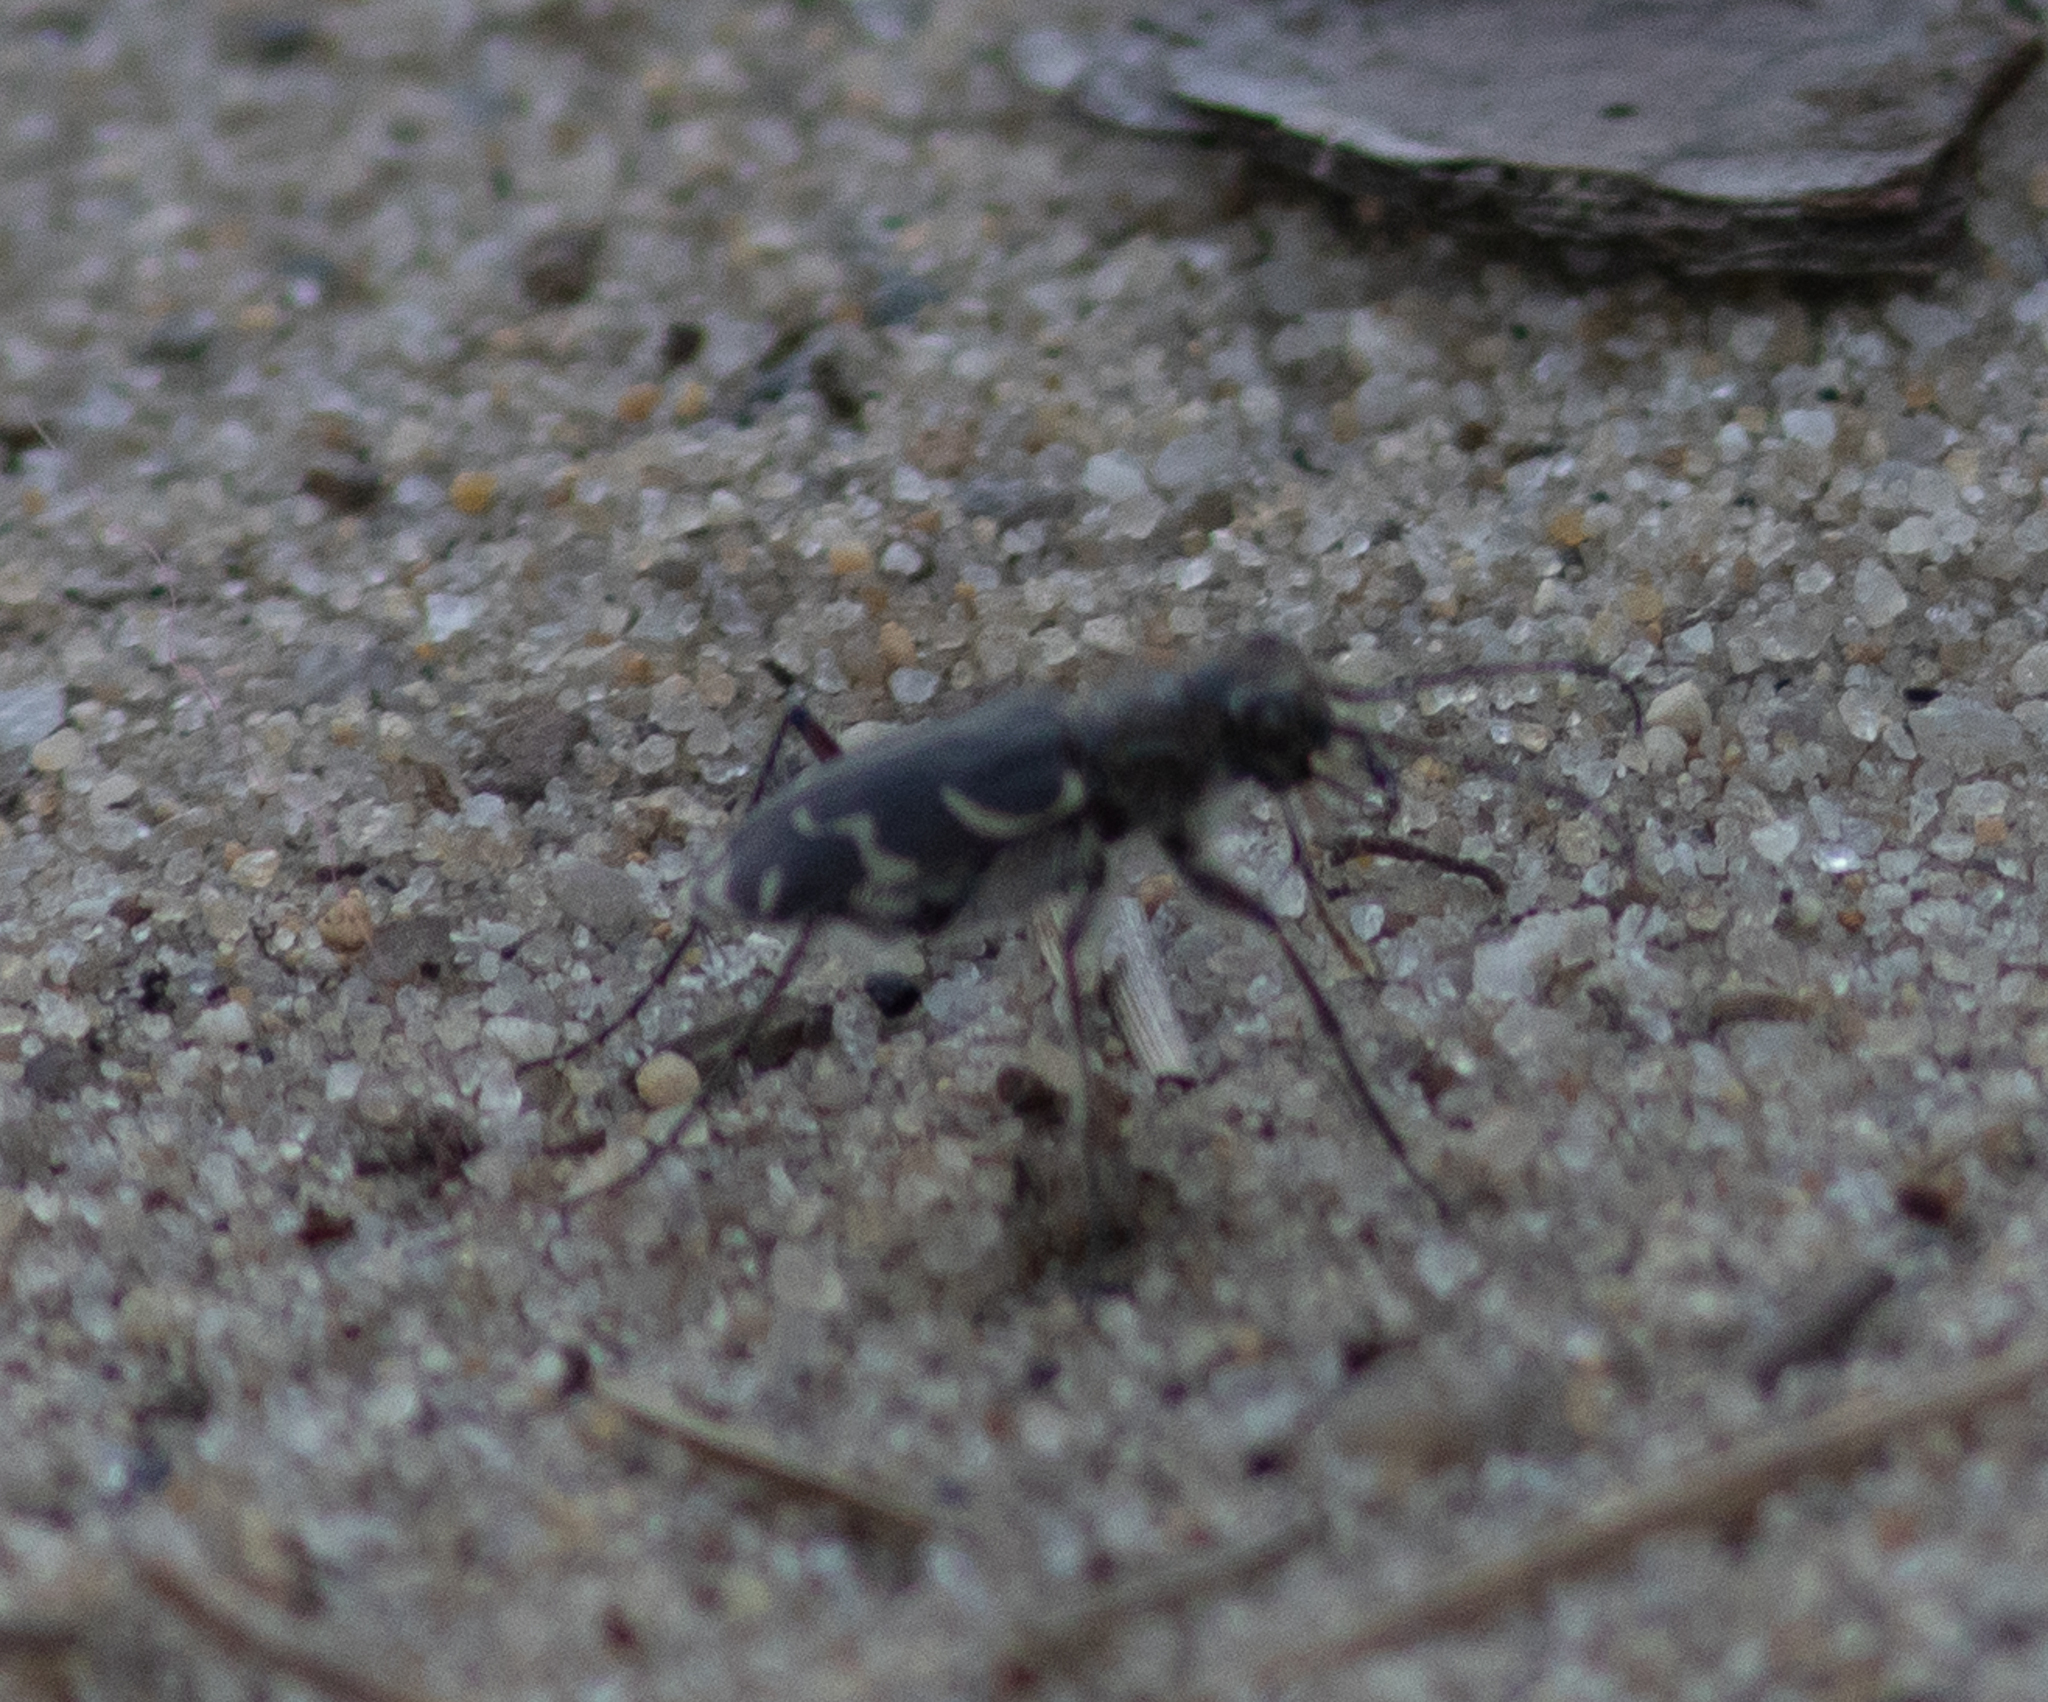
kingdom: Animalia
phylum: Arthropoda
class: Insecta
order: Coleoptera
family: Carabidae
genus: Cicindela
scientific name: Cicindela tranquebarica
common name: Oblique-lined tiger beetle
